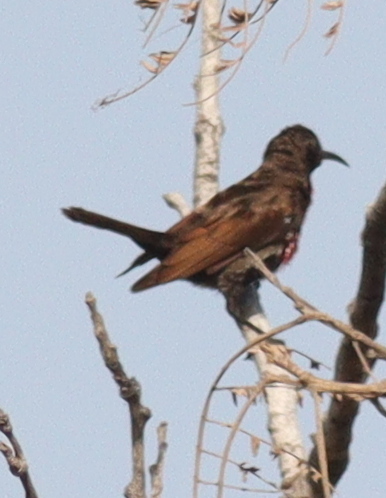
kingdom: Animalia
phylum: Chordata
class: Aves
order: Passeriformes
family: Nectariniidae
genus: Chalcomitra
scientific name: Chalcomitra senegalensis
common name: Scarlet-chested sunbird
